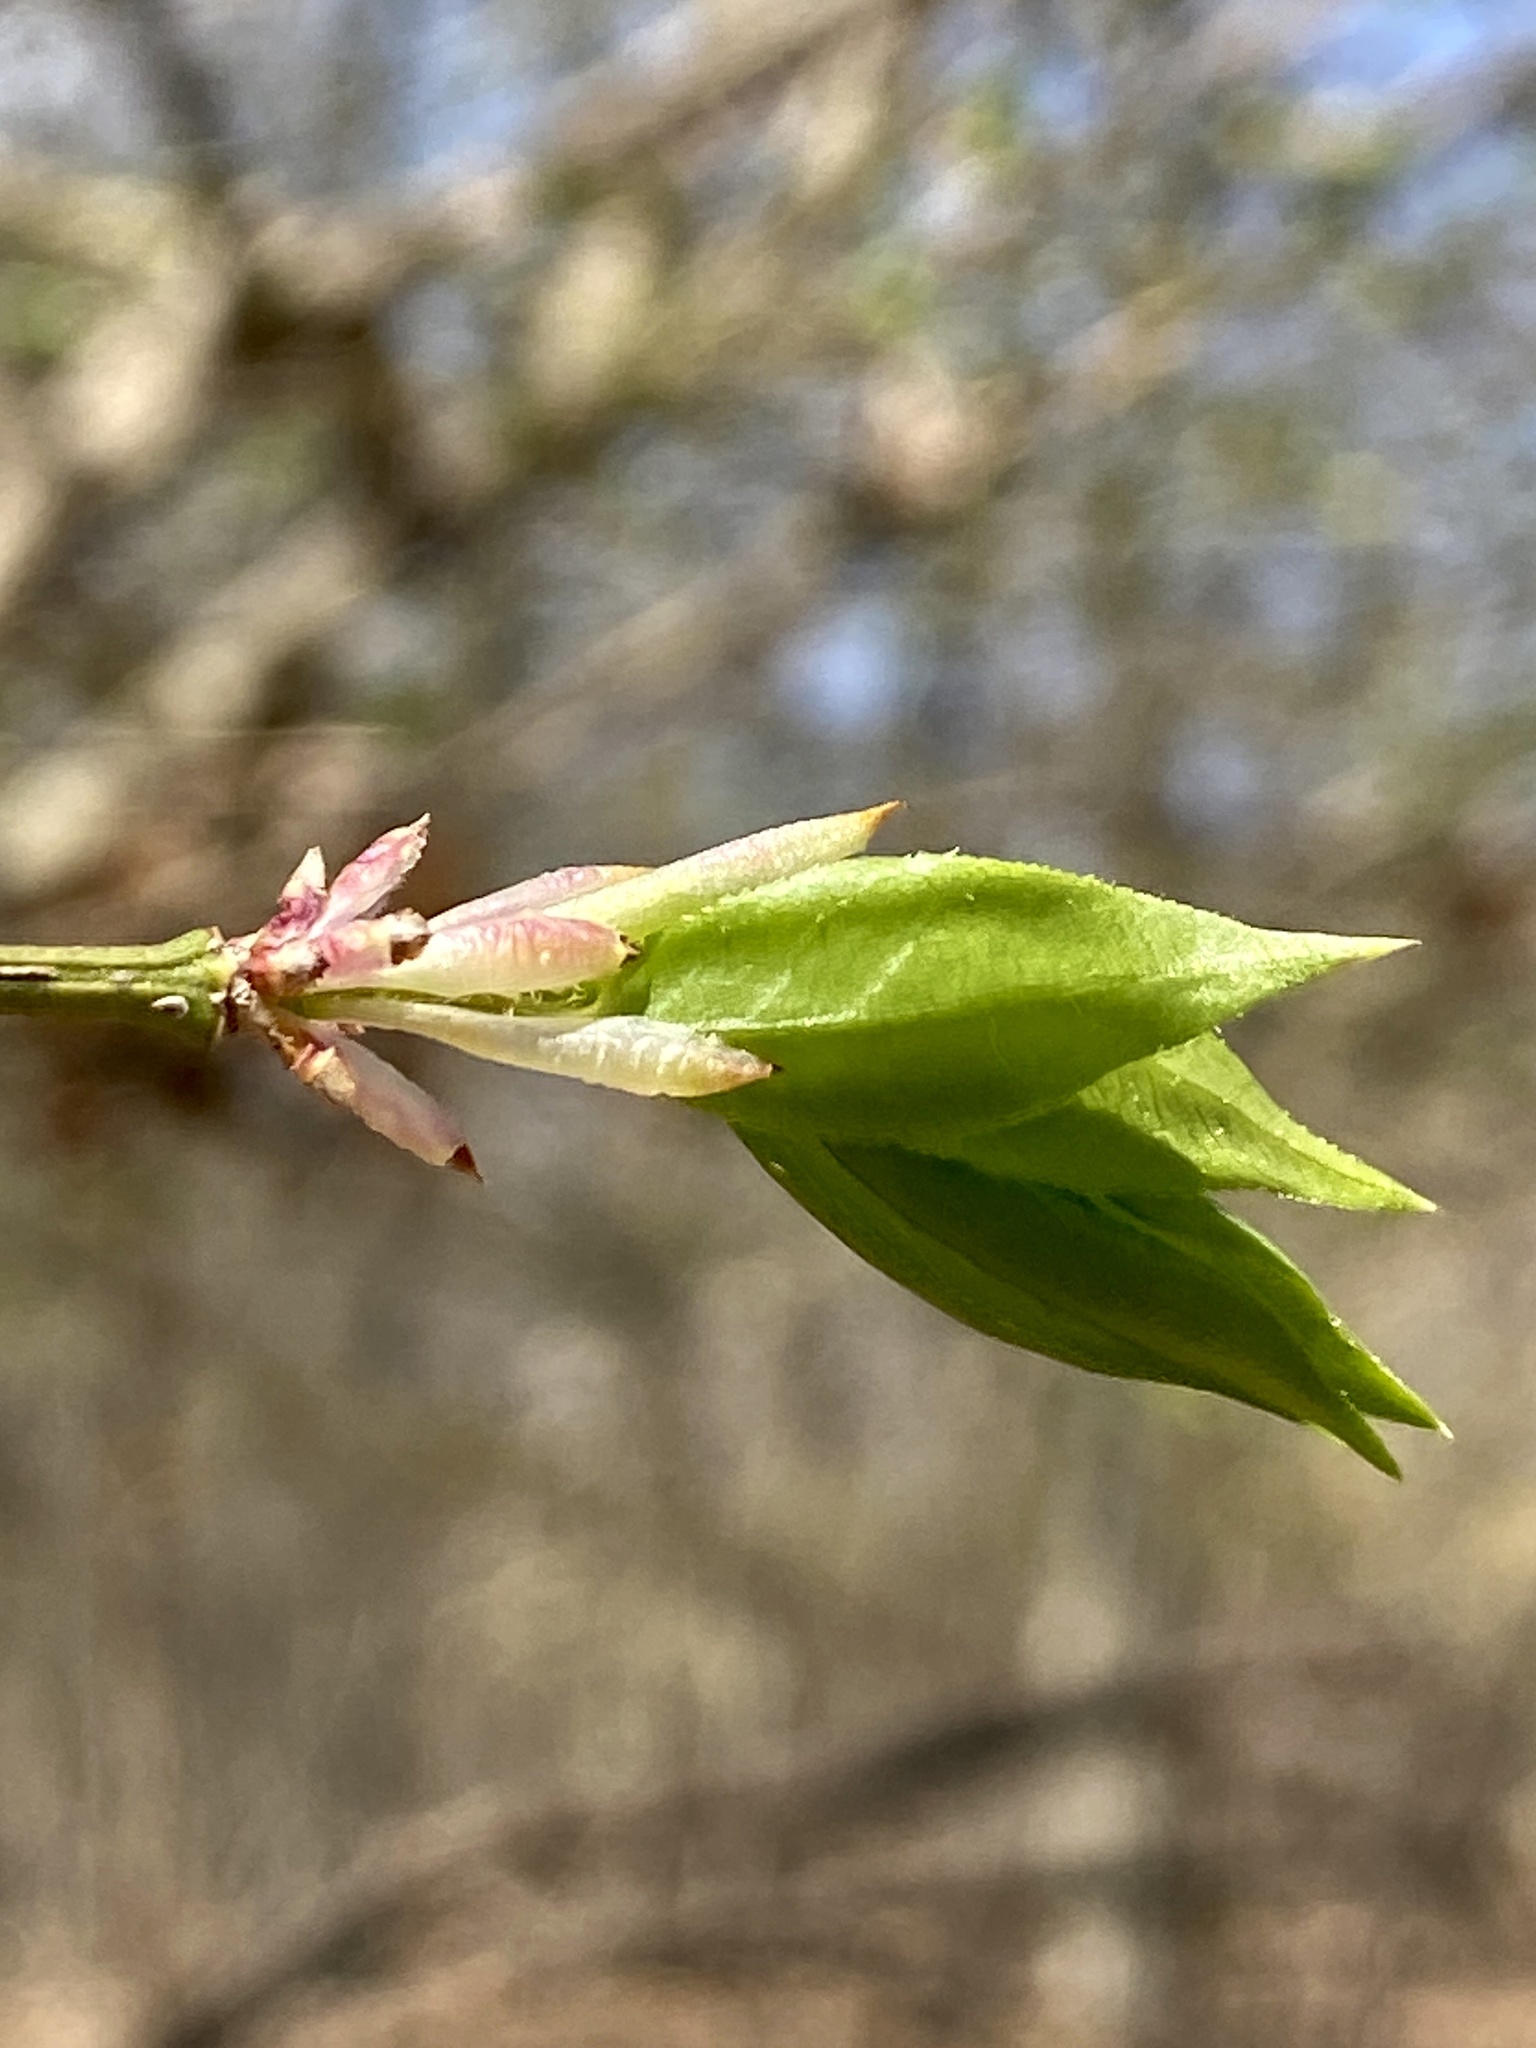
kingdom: Plantae
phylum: Tracheophyta
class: Magnoliopsida
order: Celastrales
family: Celastraceae
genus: Euonymus
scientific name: Euonymus alatus
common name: Winged euonymus
